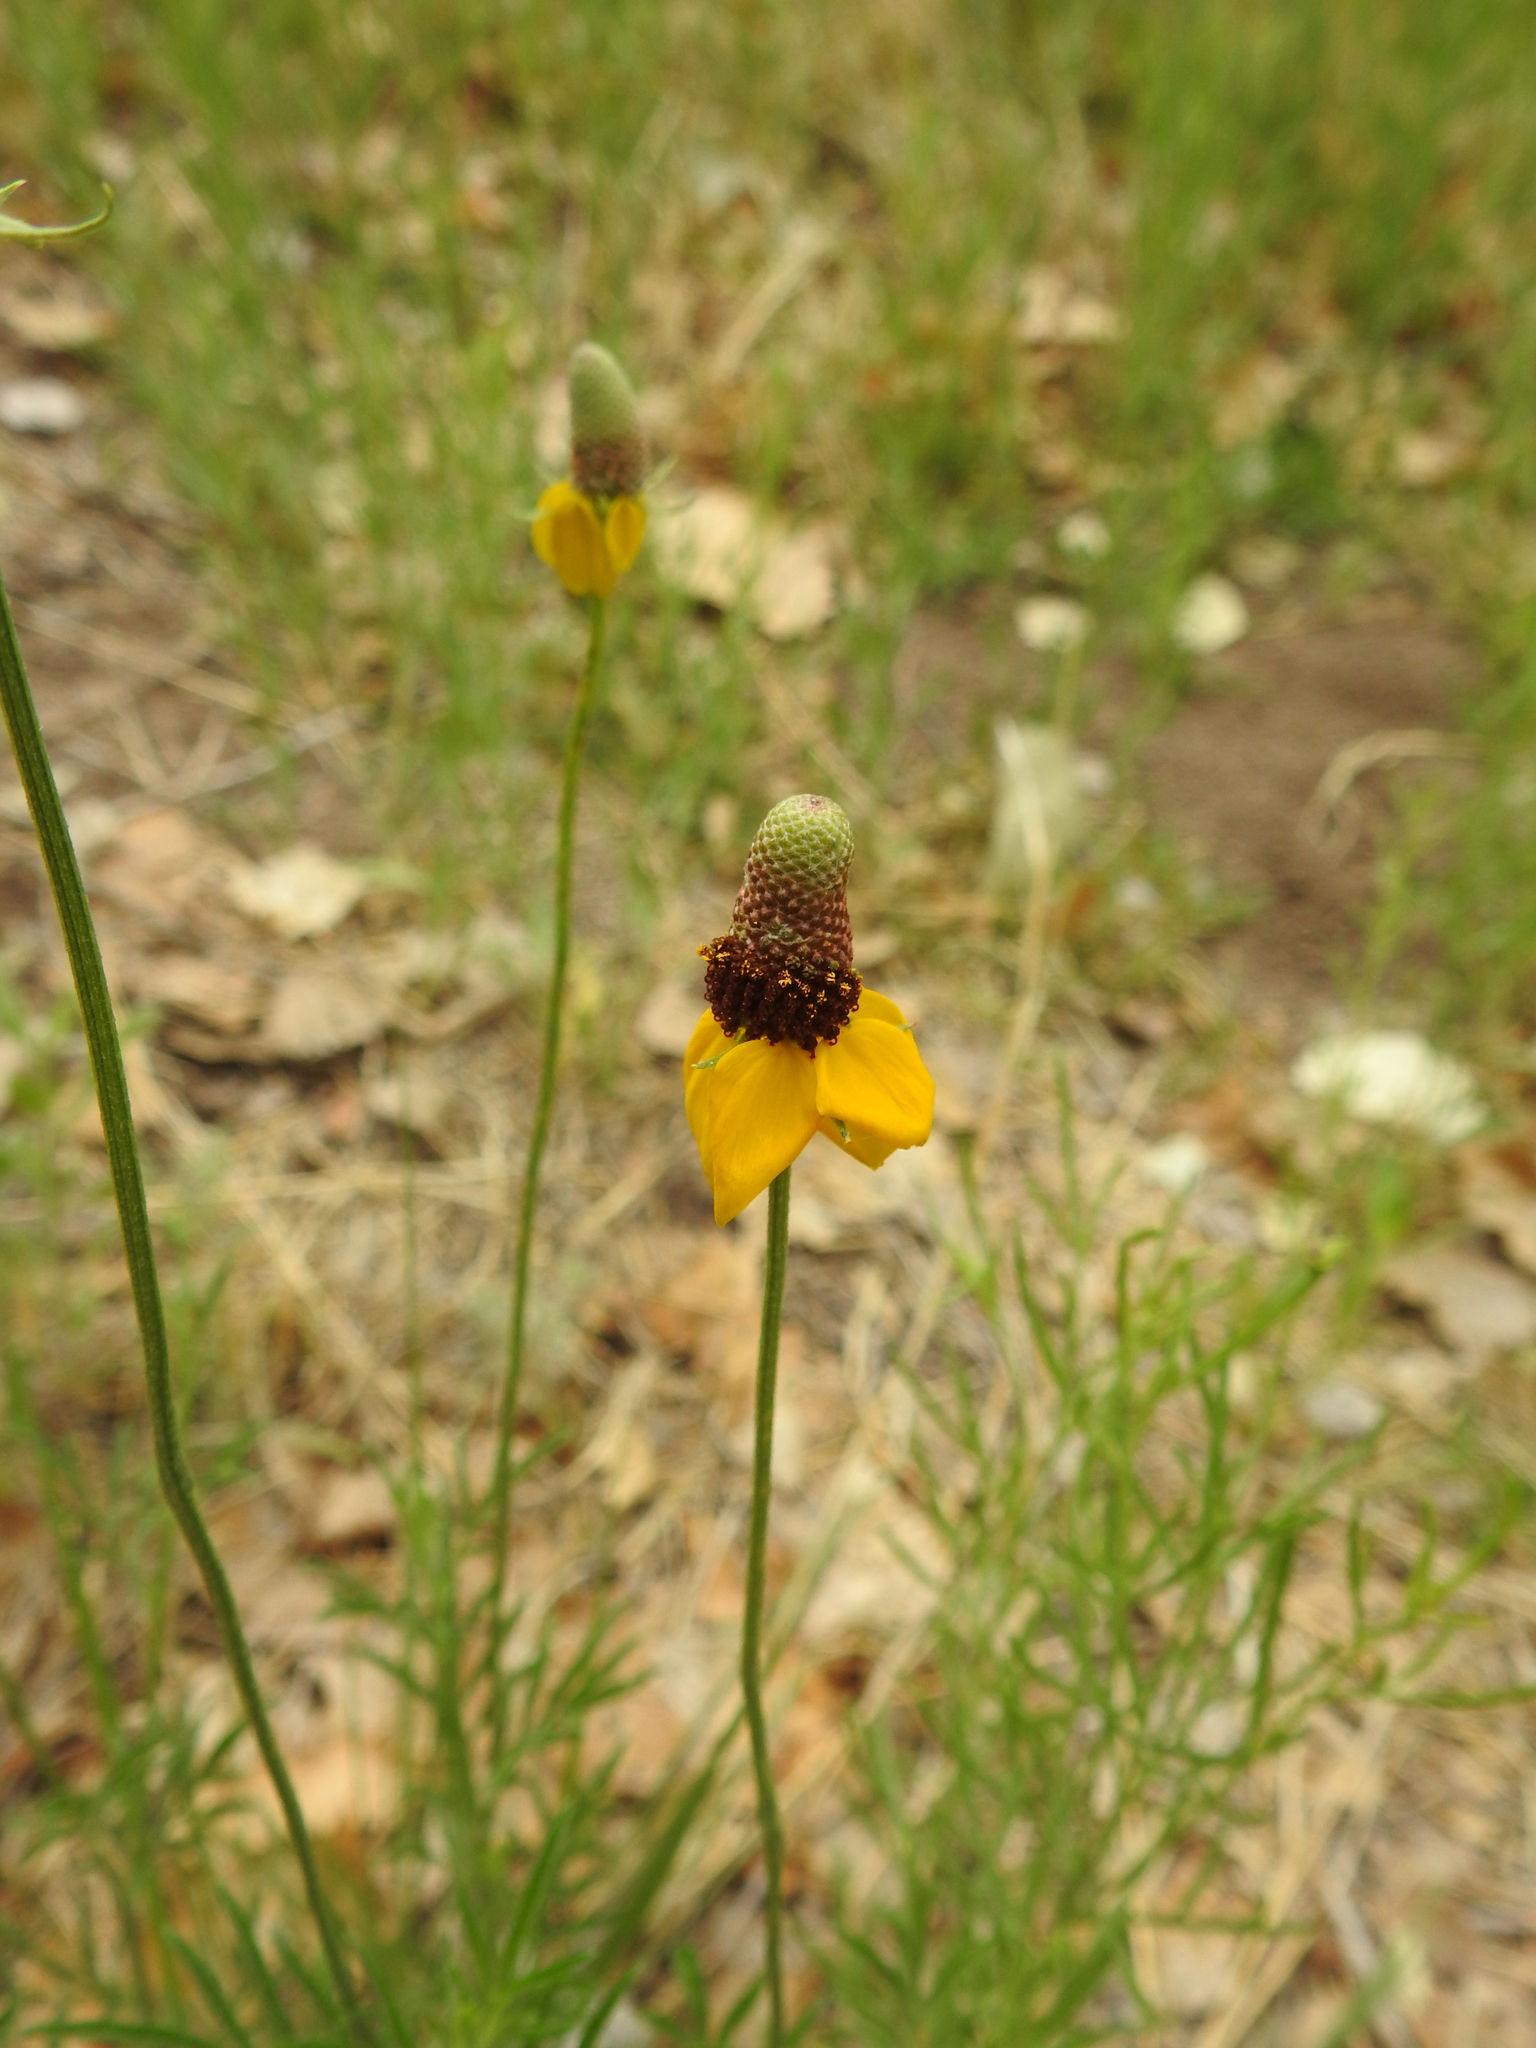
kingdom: Plantae
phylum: Tracheophyta
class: Magnoliopsida
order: Asterales
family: Asteraceae
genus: Ratibida
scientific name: Ratibida columnifera
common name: Prairie coneflower
